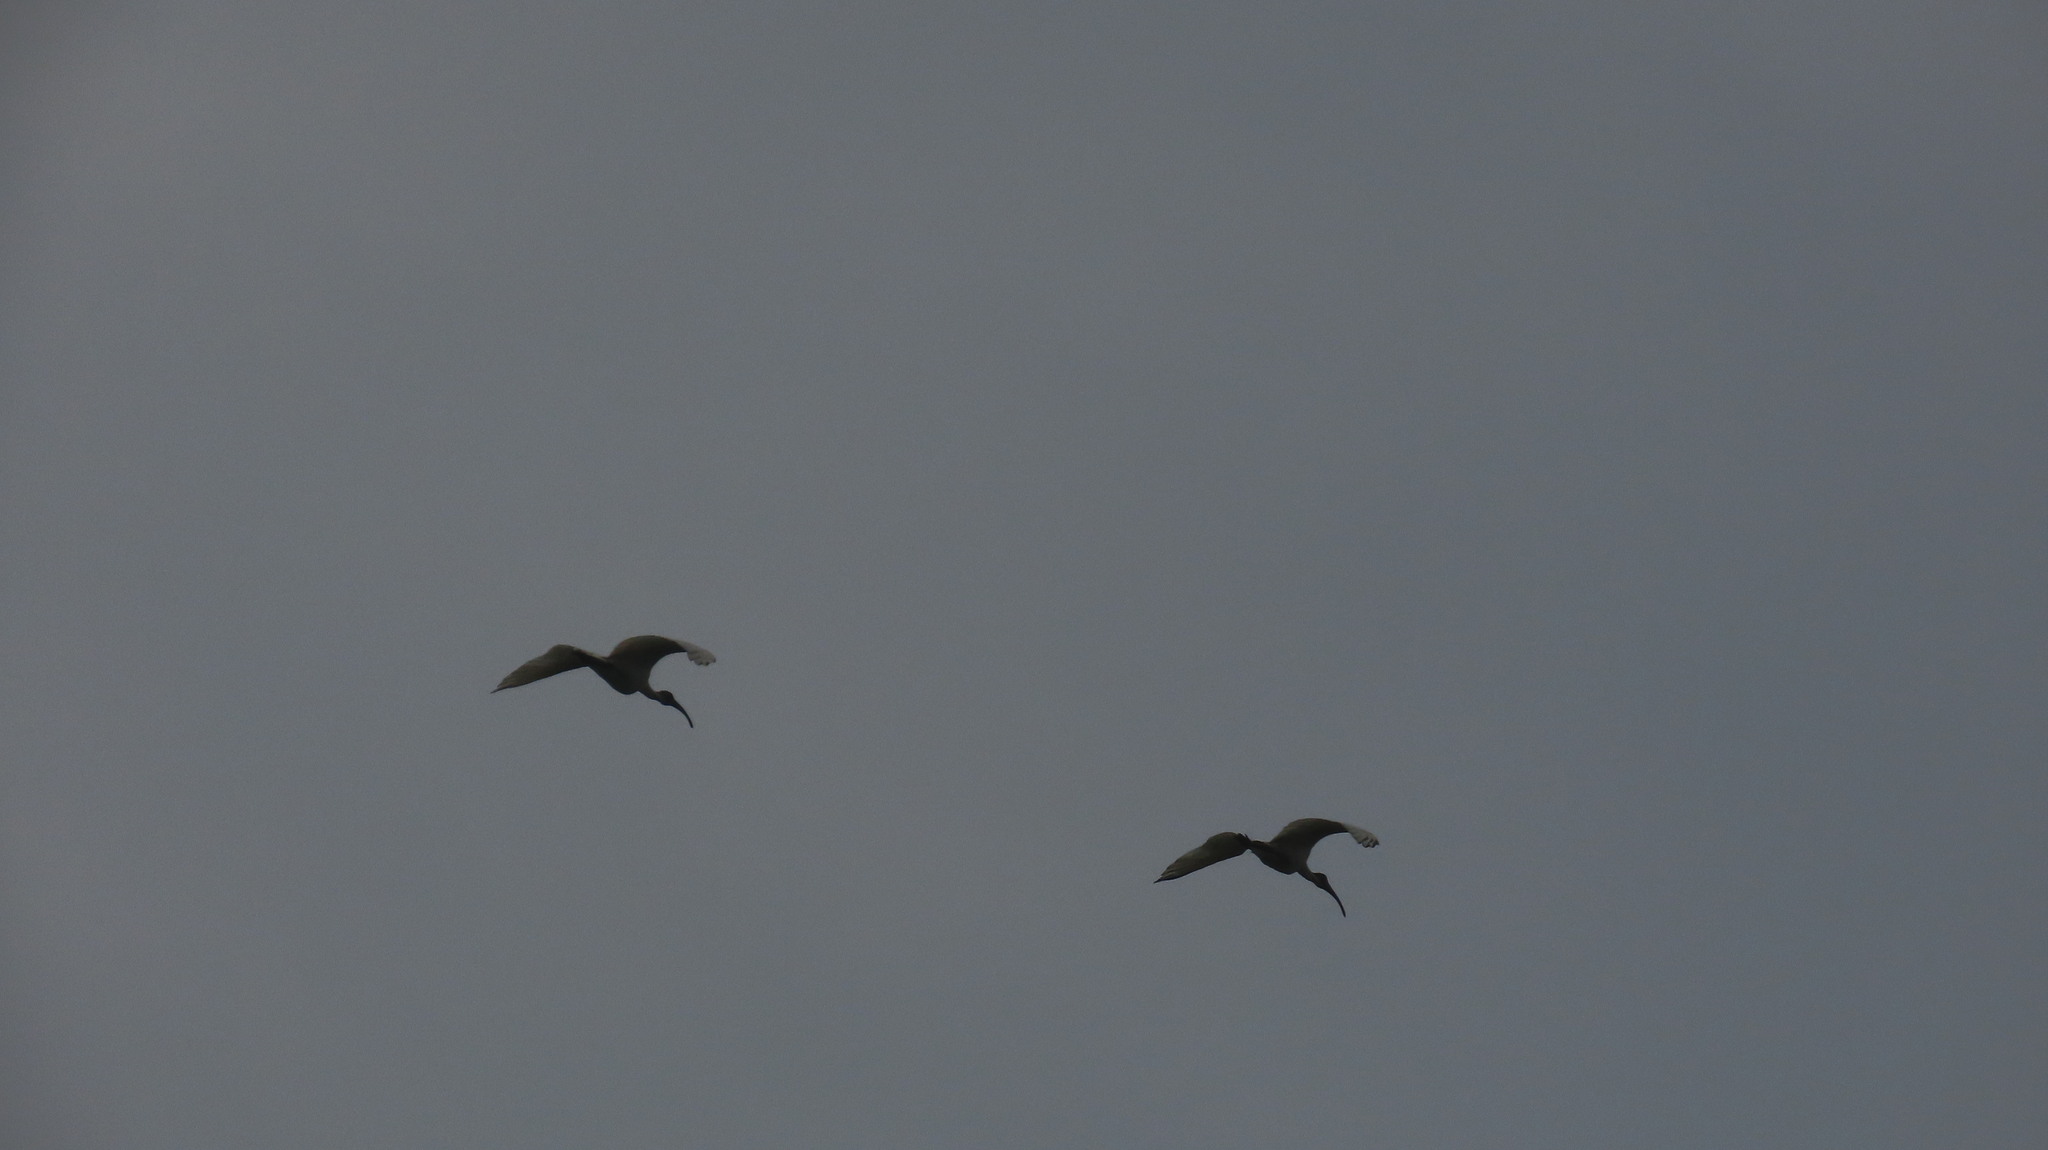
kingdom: Animalia
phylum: Chordata
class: Aves
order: Pelecaniformes
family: Threskiornithidae
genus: Threskiornis
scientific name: Threskiornis melanocephalus
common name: Black-headed ibis
